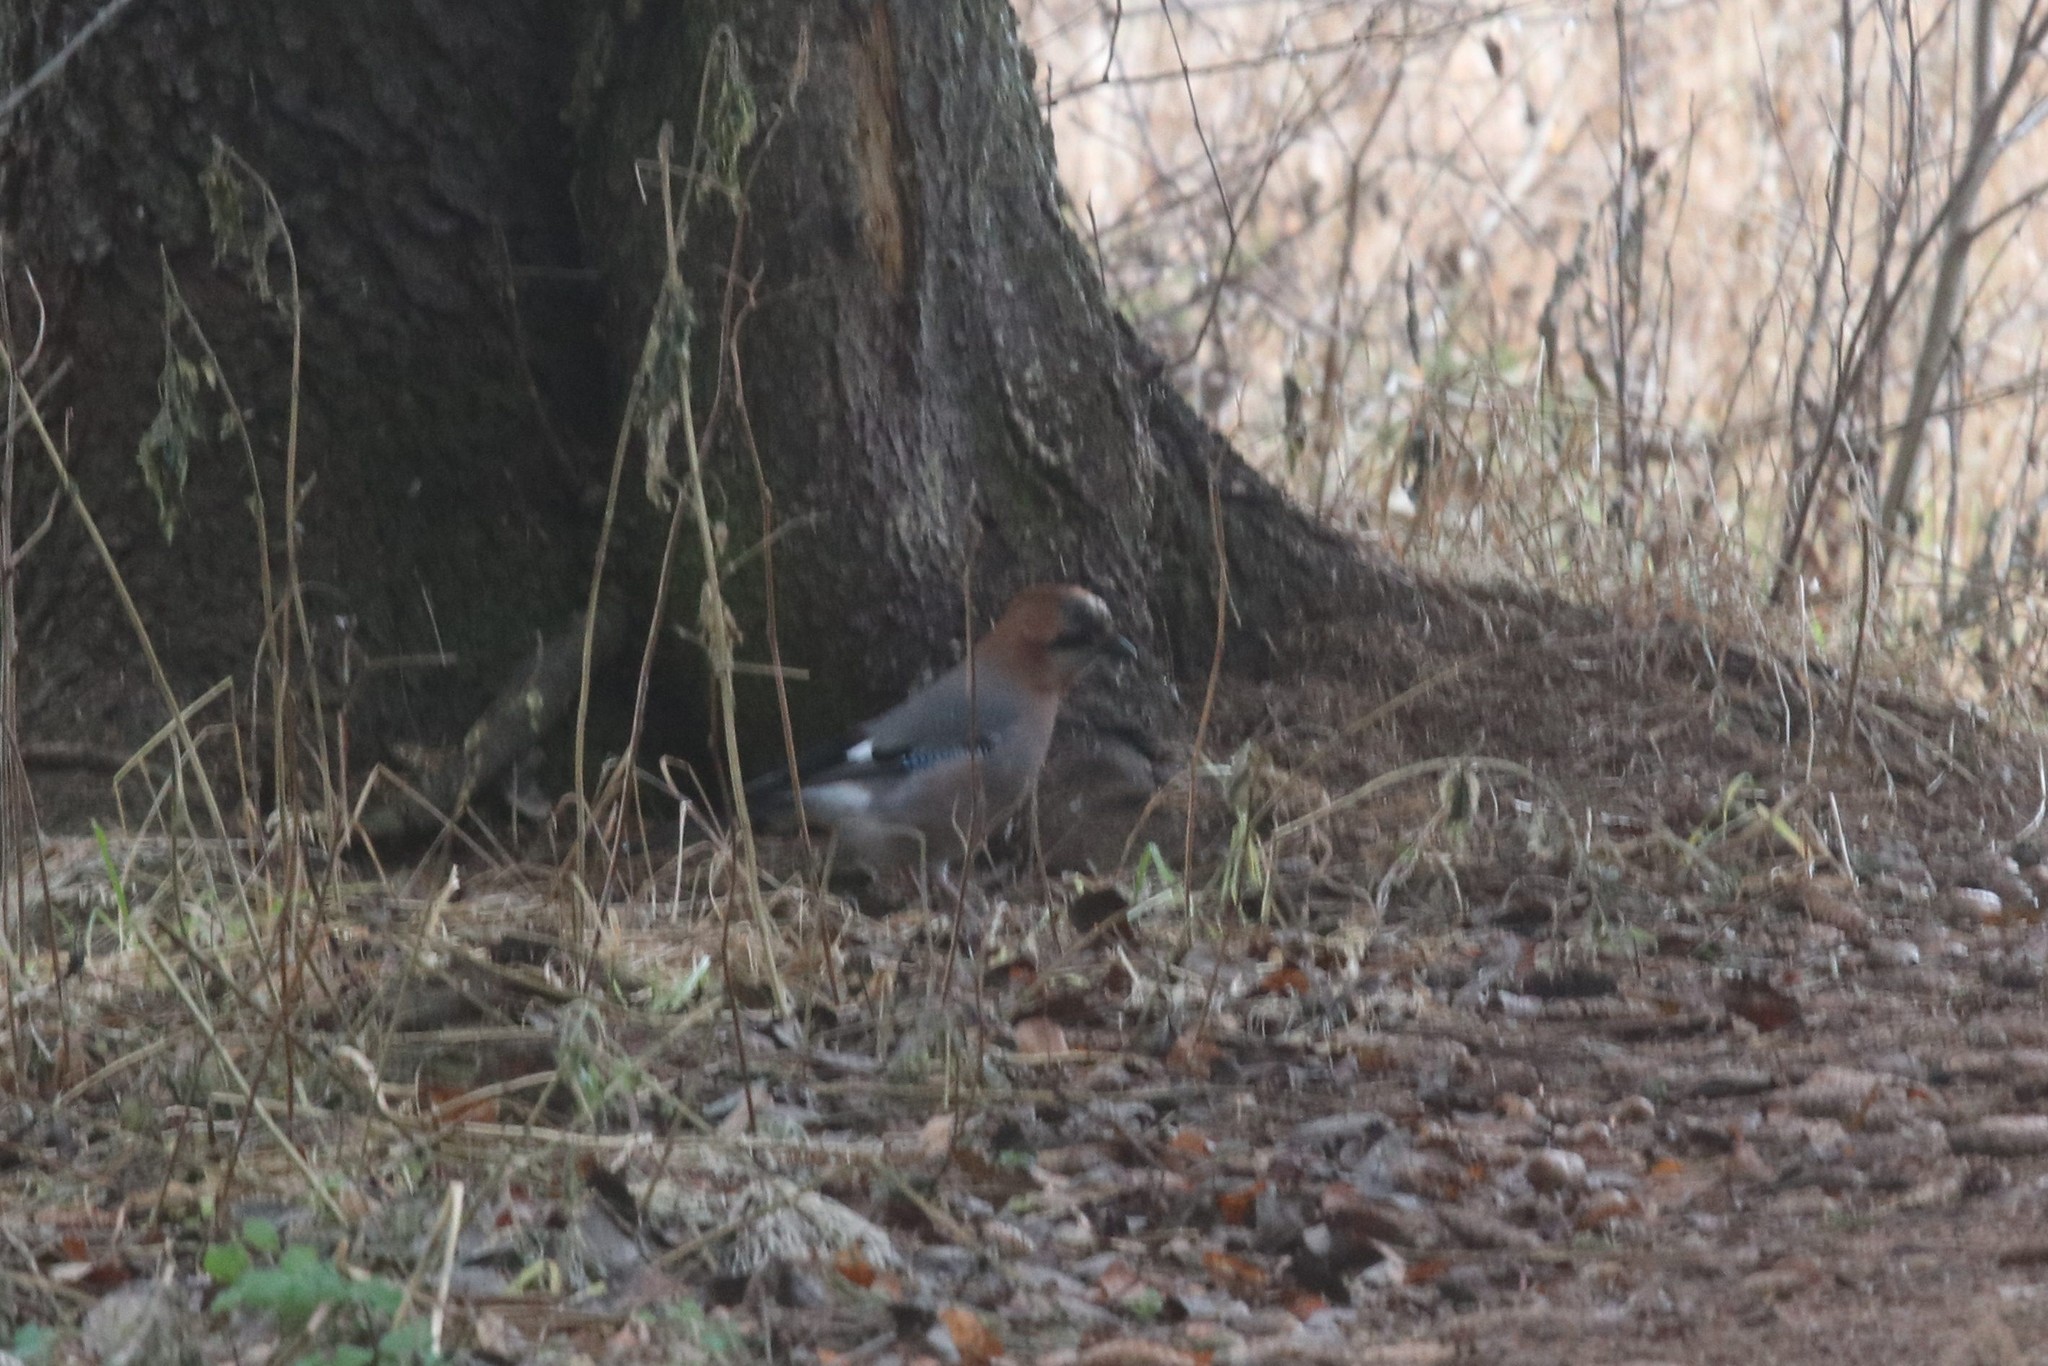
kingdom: Animalia
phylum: Chordata
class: Aves
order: Passeriformes
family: Corvidae
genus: Garrulus
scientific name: Garrulus glandarius
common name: Eurasian jay
